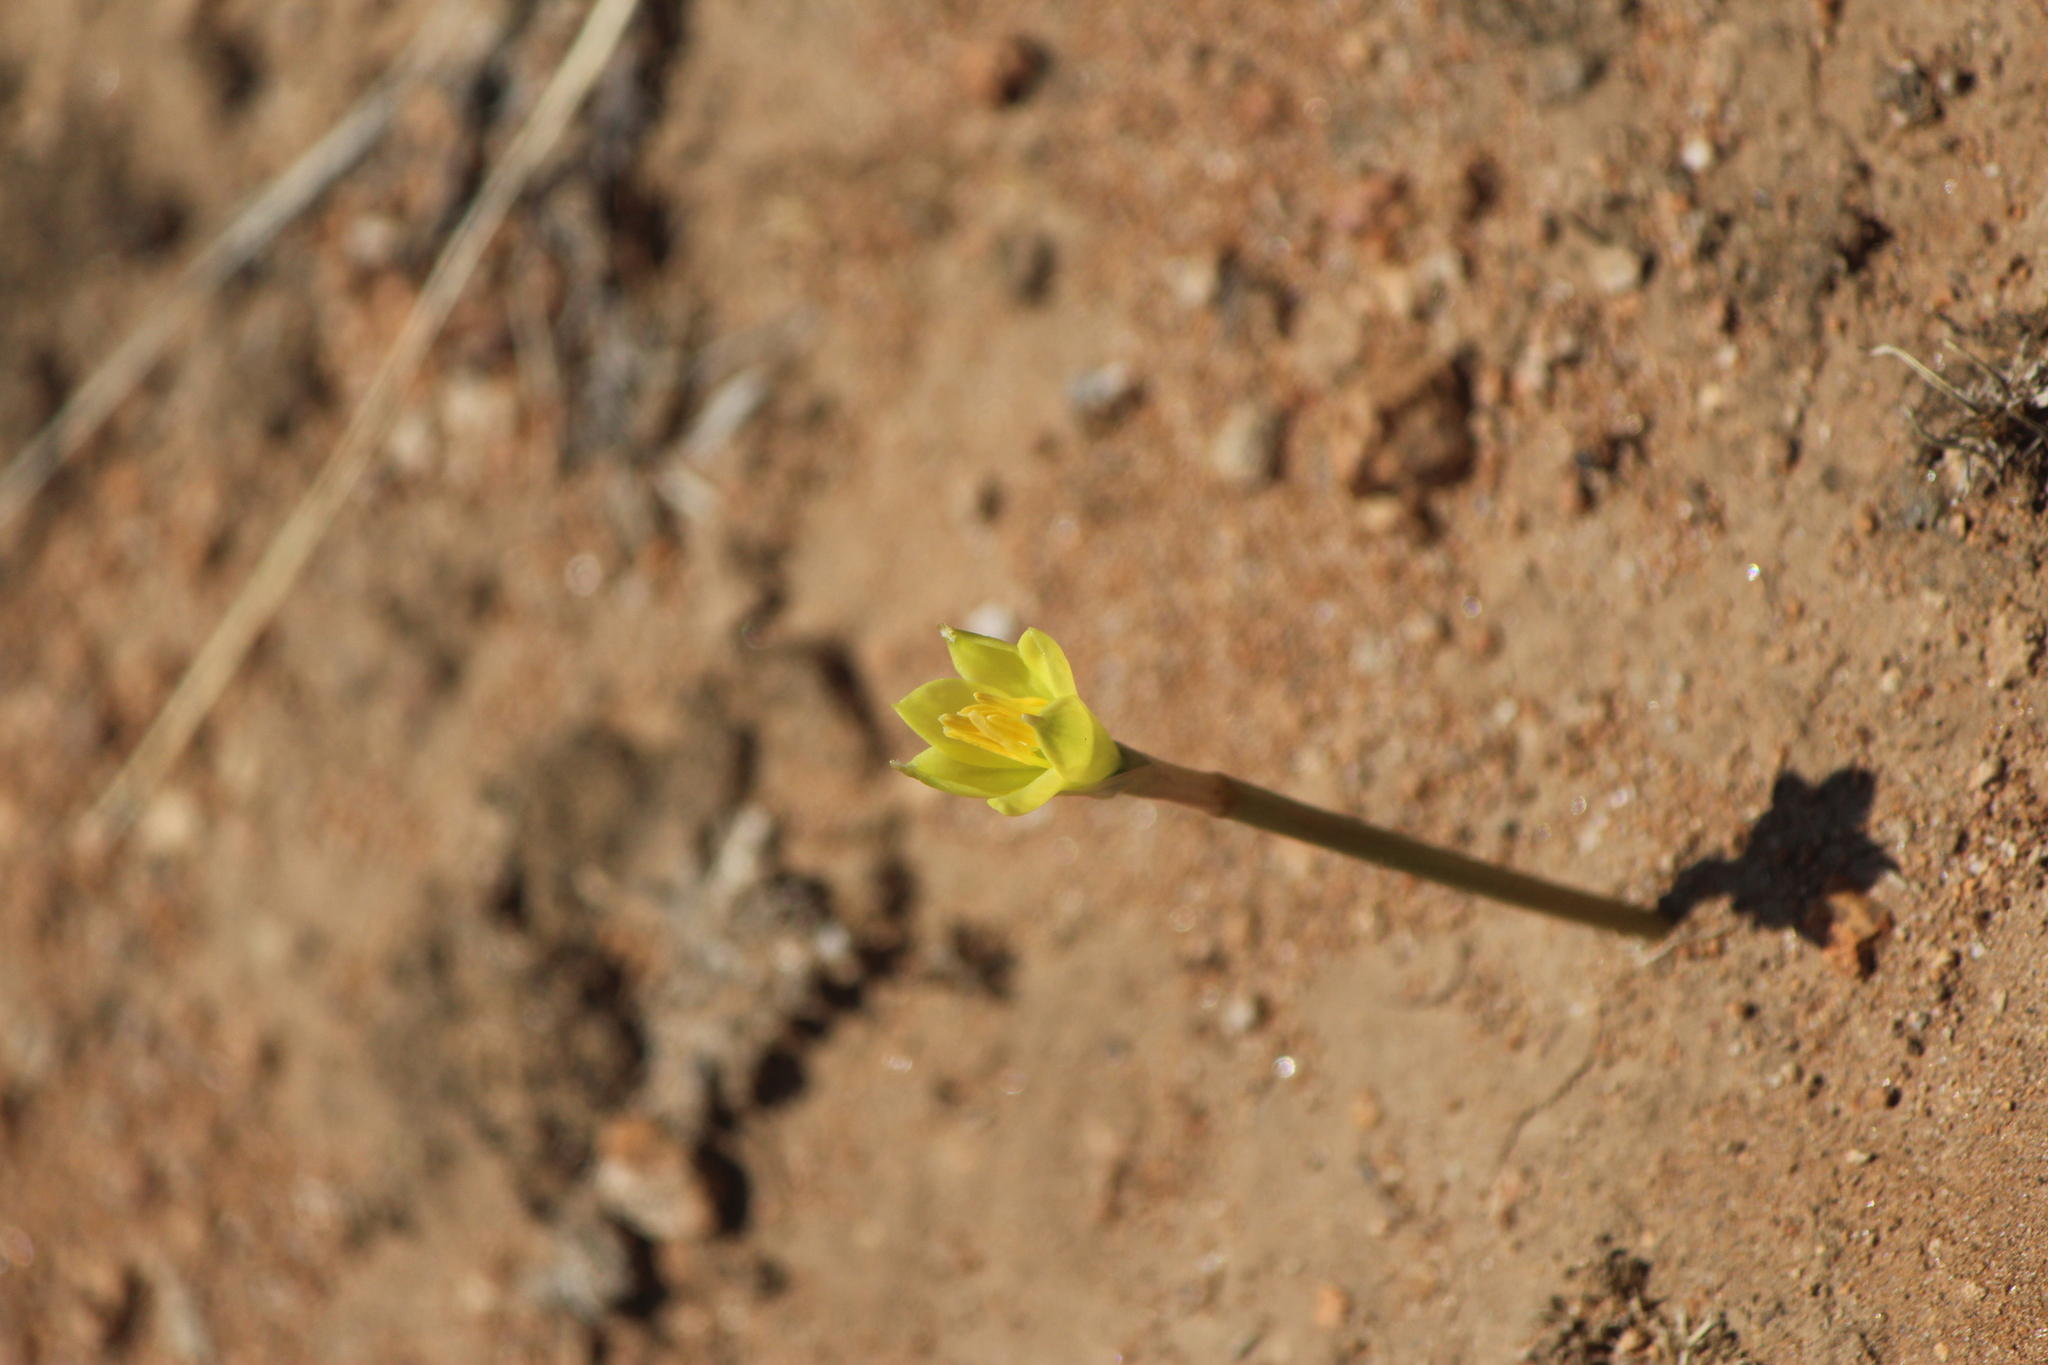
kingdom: Plantae
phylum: Tracheophyta
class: Liliopsida
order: Asparagales
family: Amaryllidaceae
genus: Zephyranthes
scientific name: Zephyranthes longifolia
